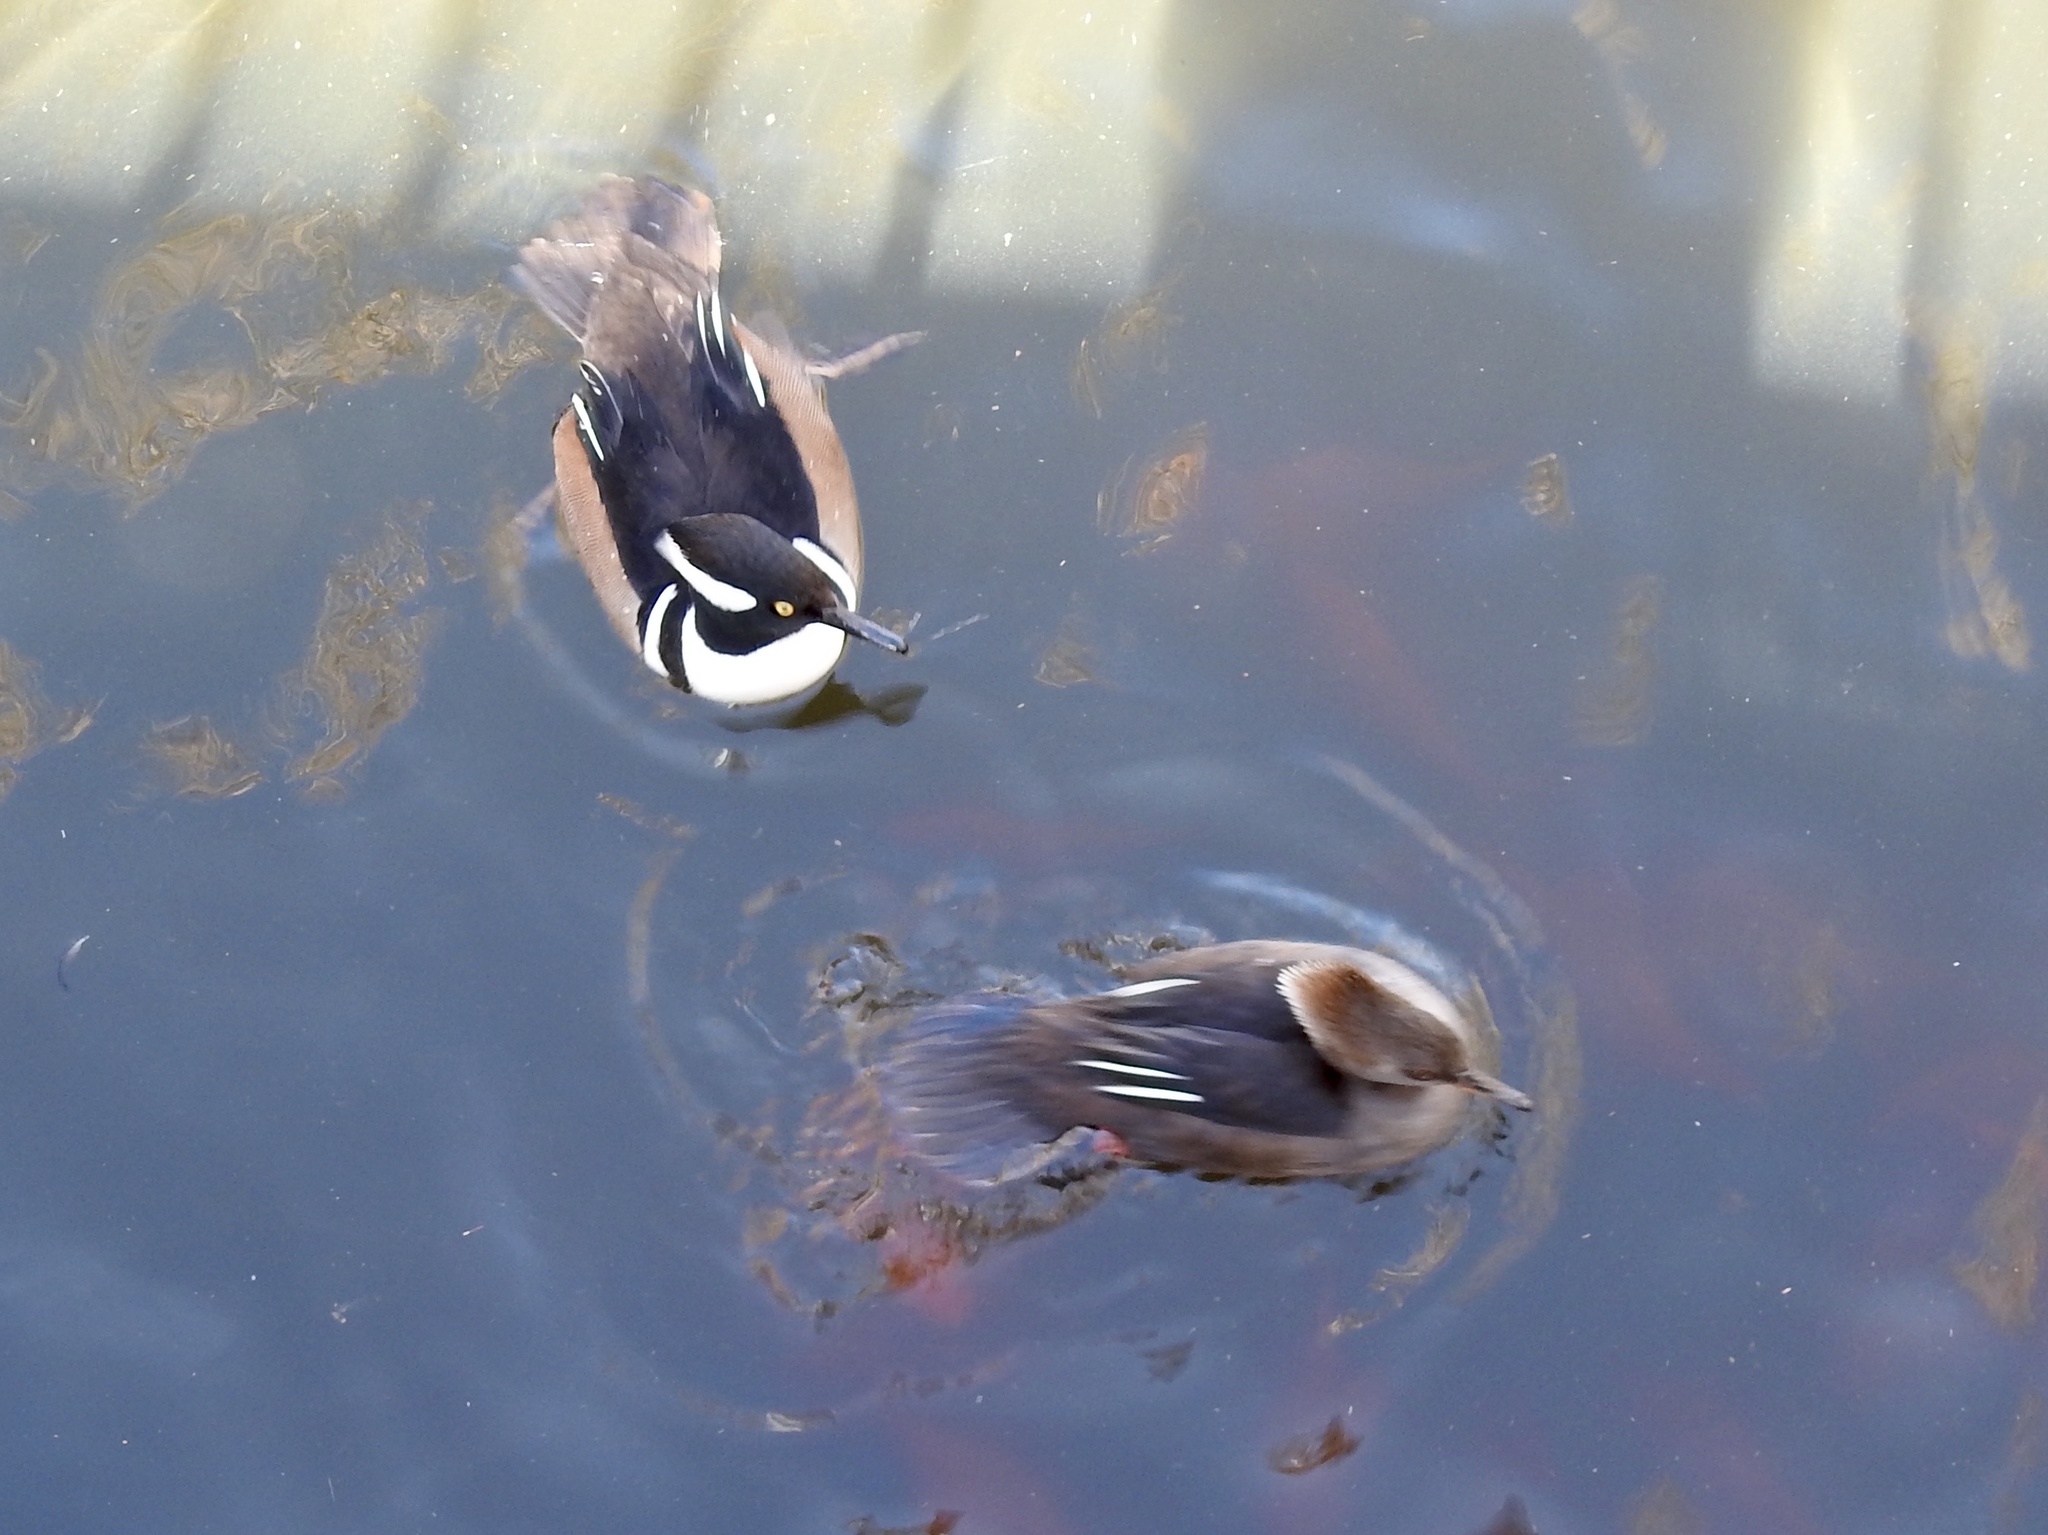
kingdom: Animalia
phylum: Chordata
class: Aves
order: Anseriformes
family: Anatidae
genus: Lophodytes
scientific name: Lophodytes cucullatus
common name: Hooded merganser
